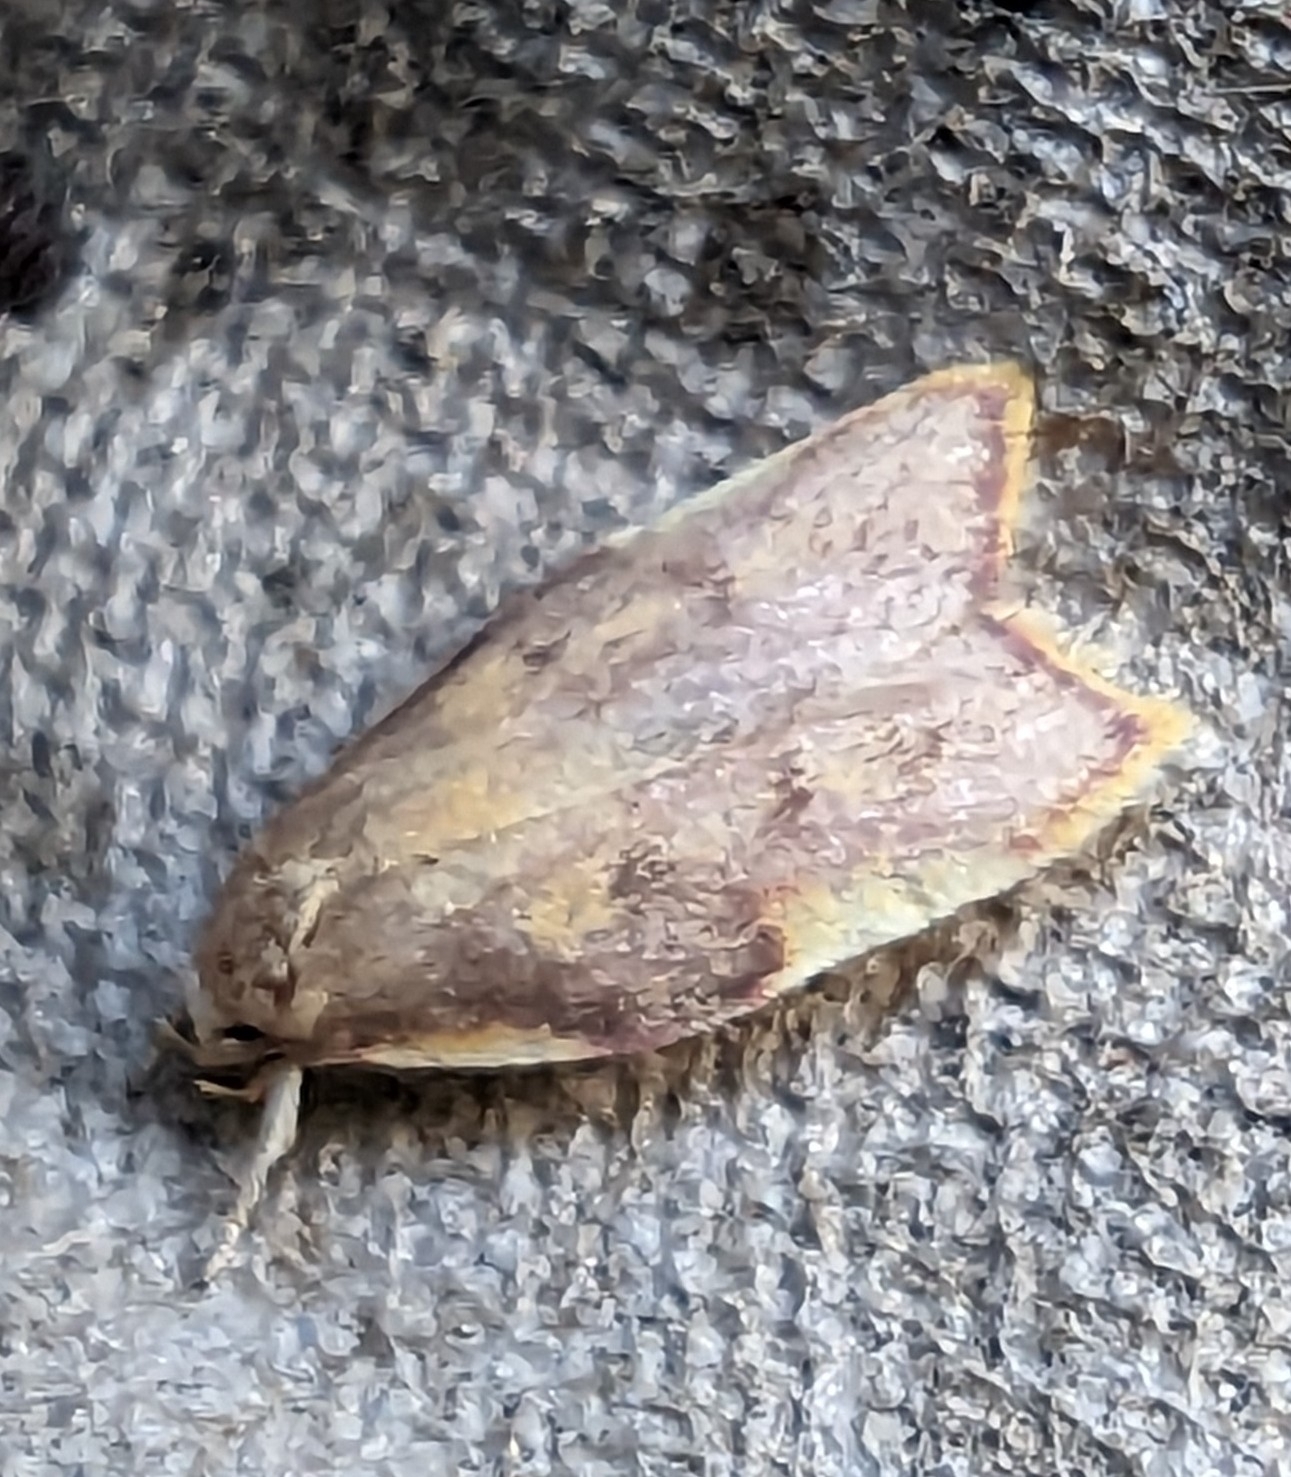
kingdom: Animalia
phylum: Arthropoda
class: Insecta
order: Lepidoptera
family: Peleopodidae
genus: Carcina
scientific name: Carcina quercana
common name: Moth
